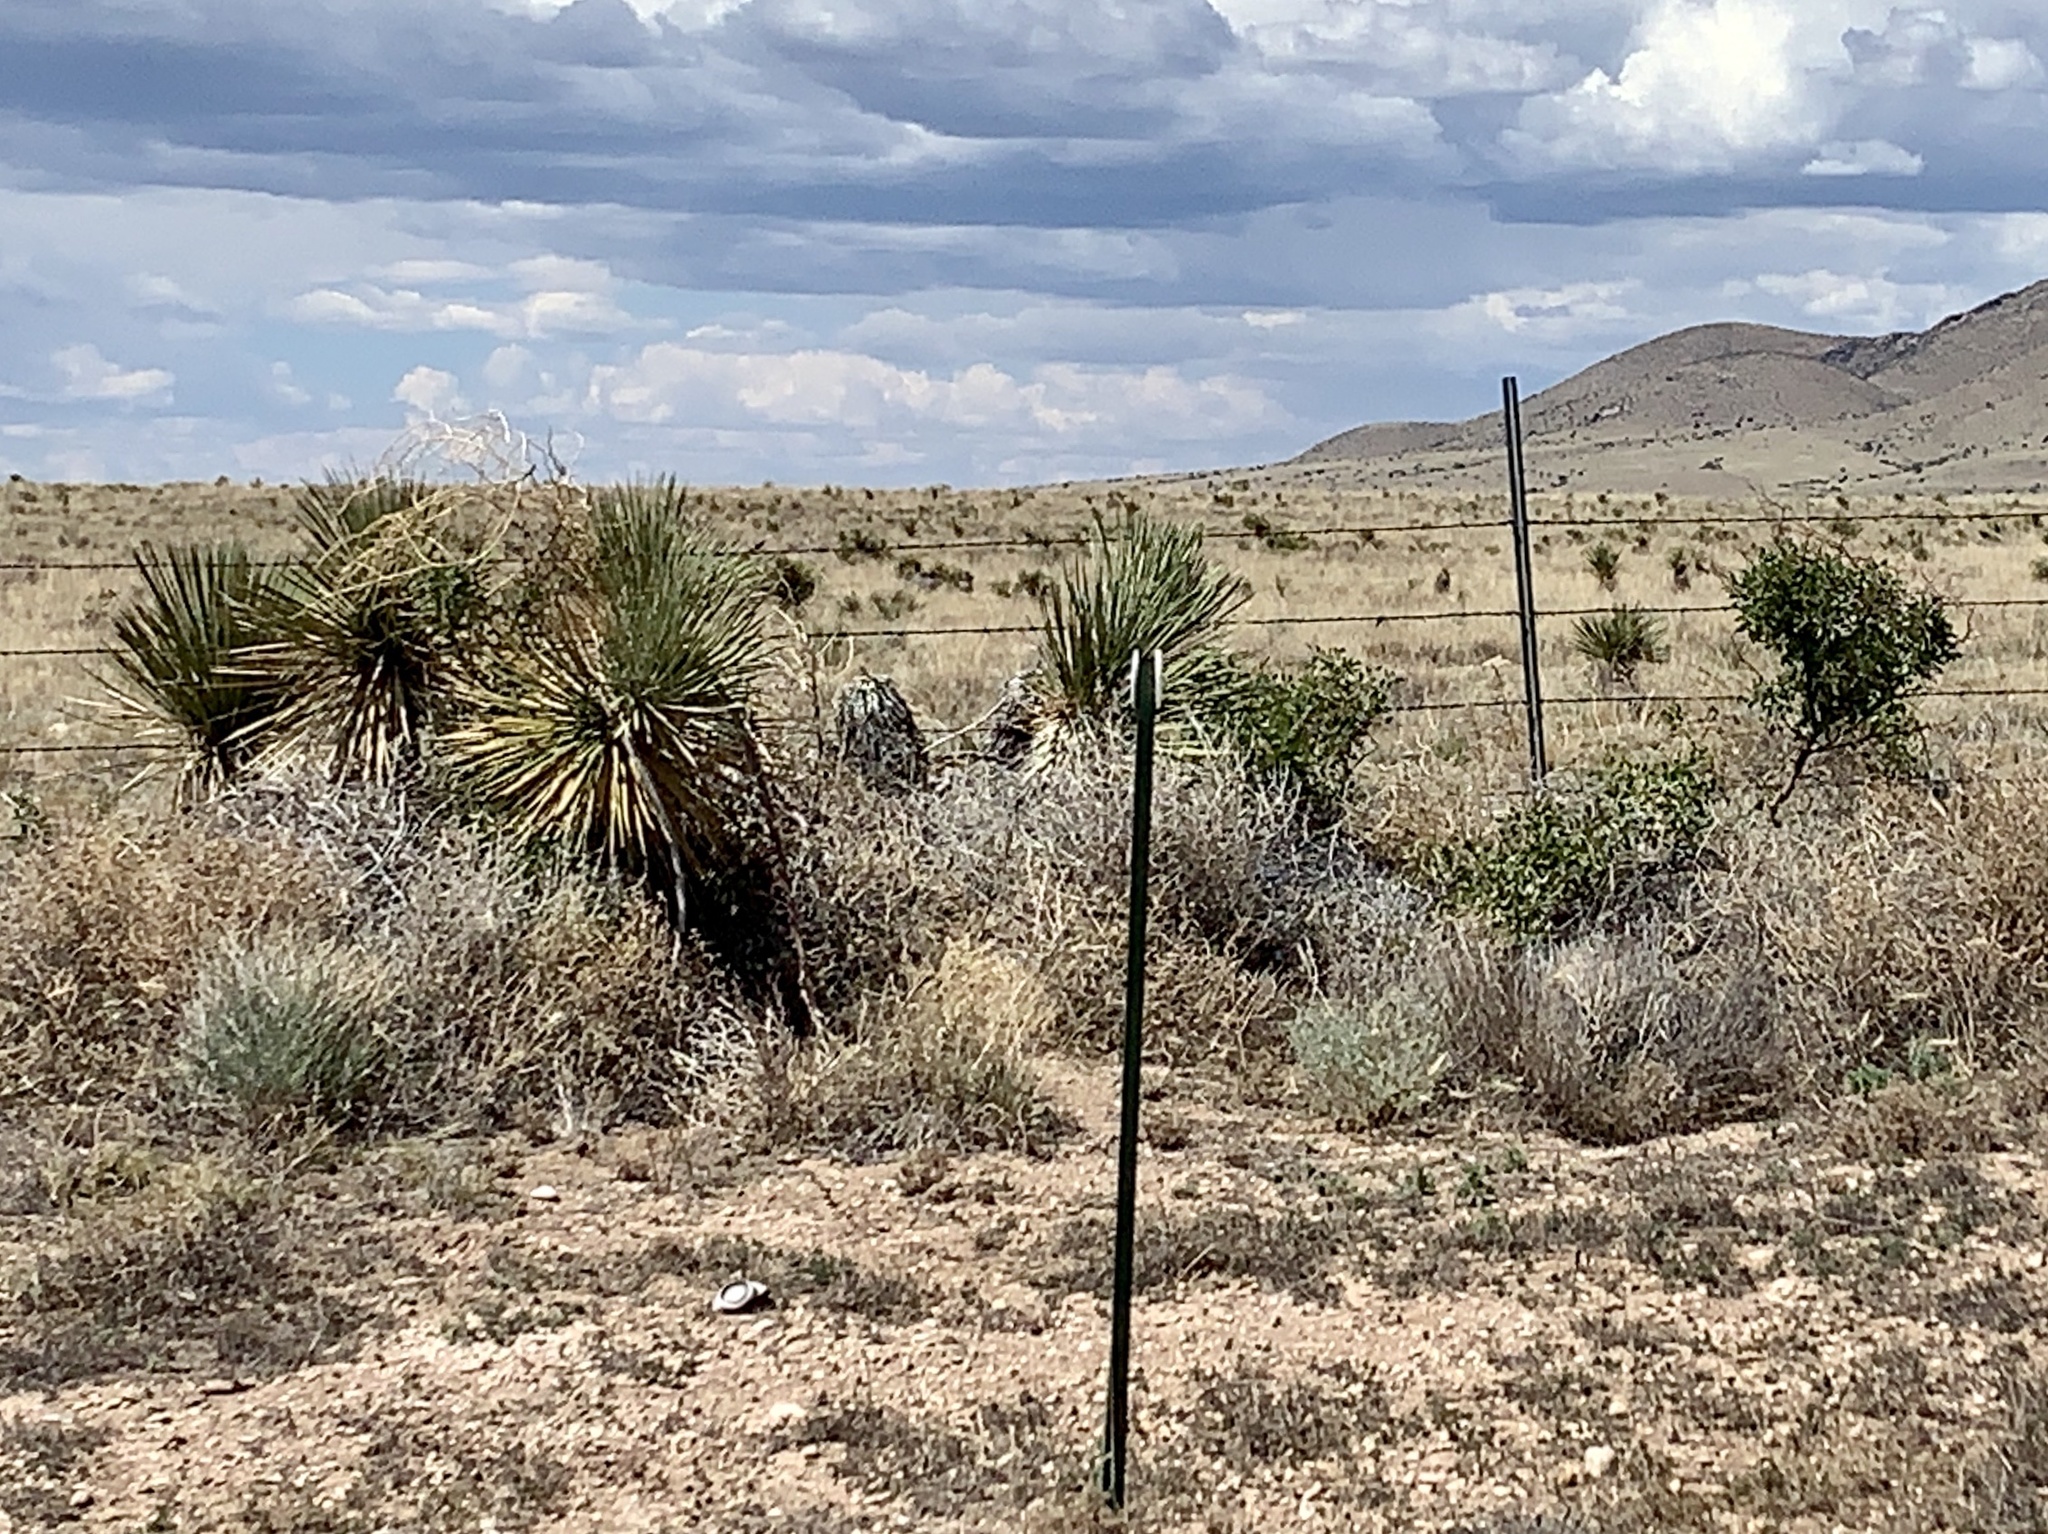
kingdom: Plantae
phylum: Tracheophyta
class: Liliopsida
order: Asparagales
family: Asparagaceae
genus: Yucca
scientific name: Yucca elata
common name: Palmella
